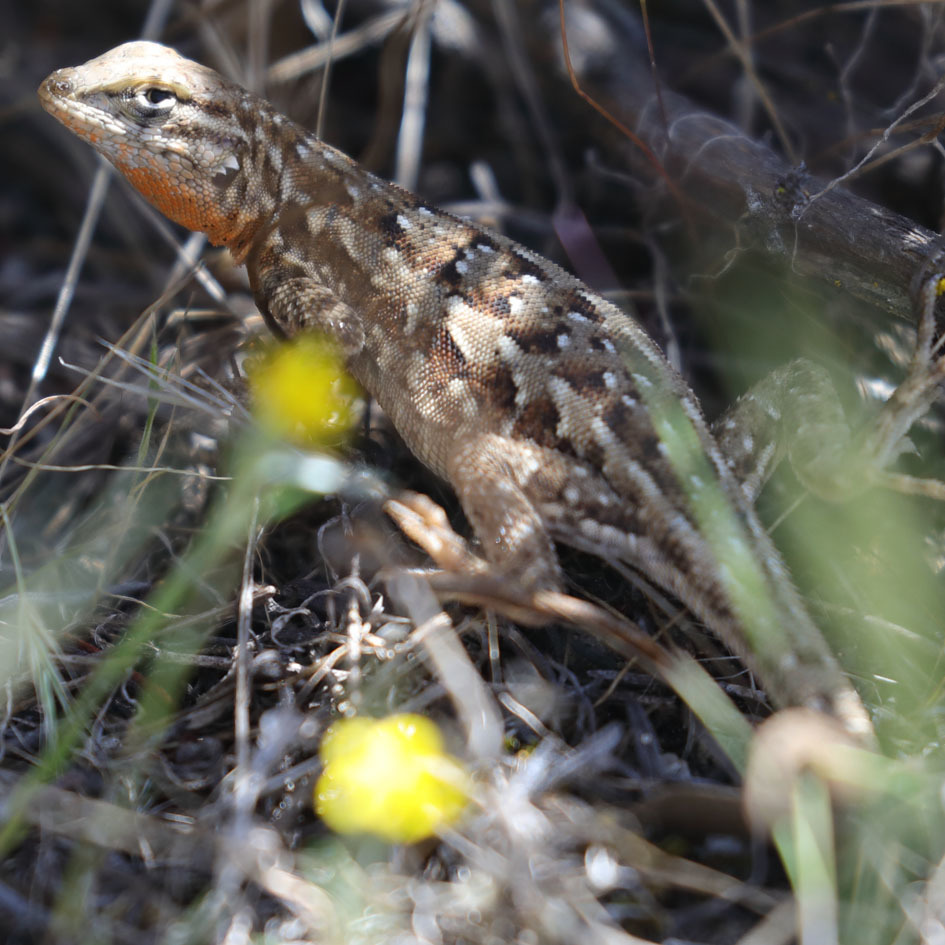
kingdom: Animalia
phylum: Chordata
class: Squamata
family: Phrynosomatidae
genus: Uta
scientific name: Uta stansburiana
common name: Side-blotched lizard
